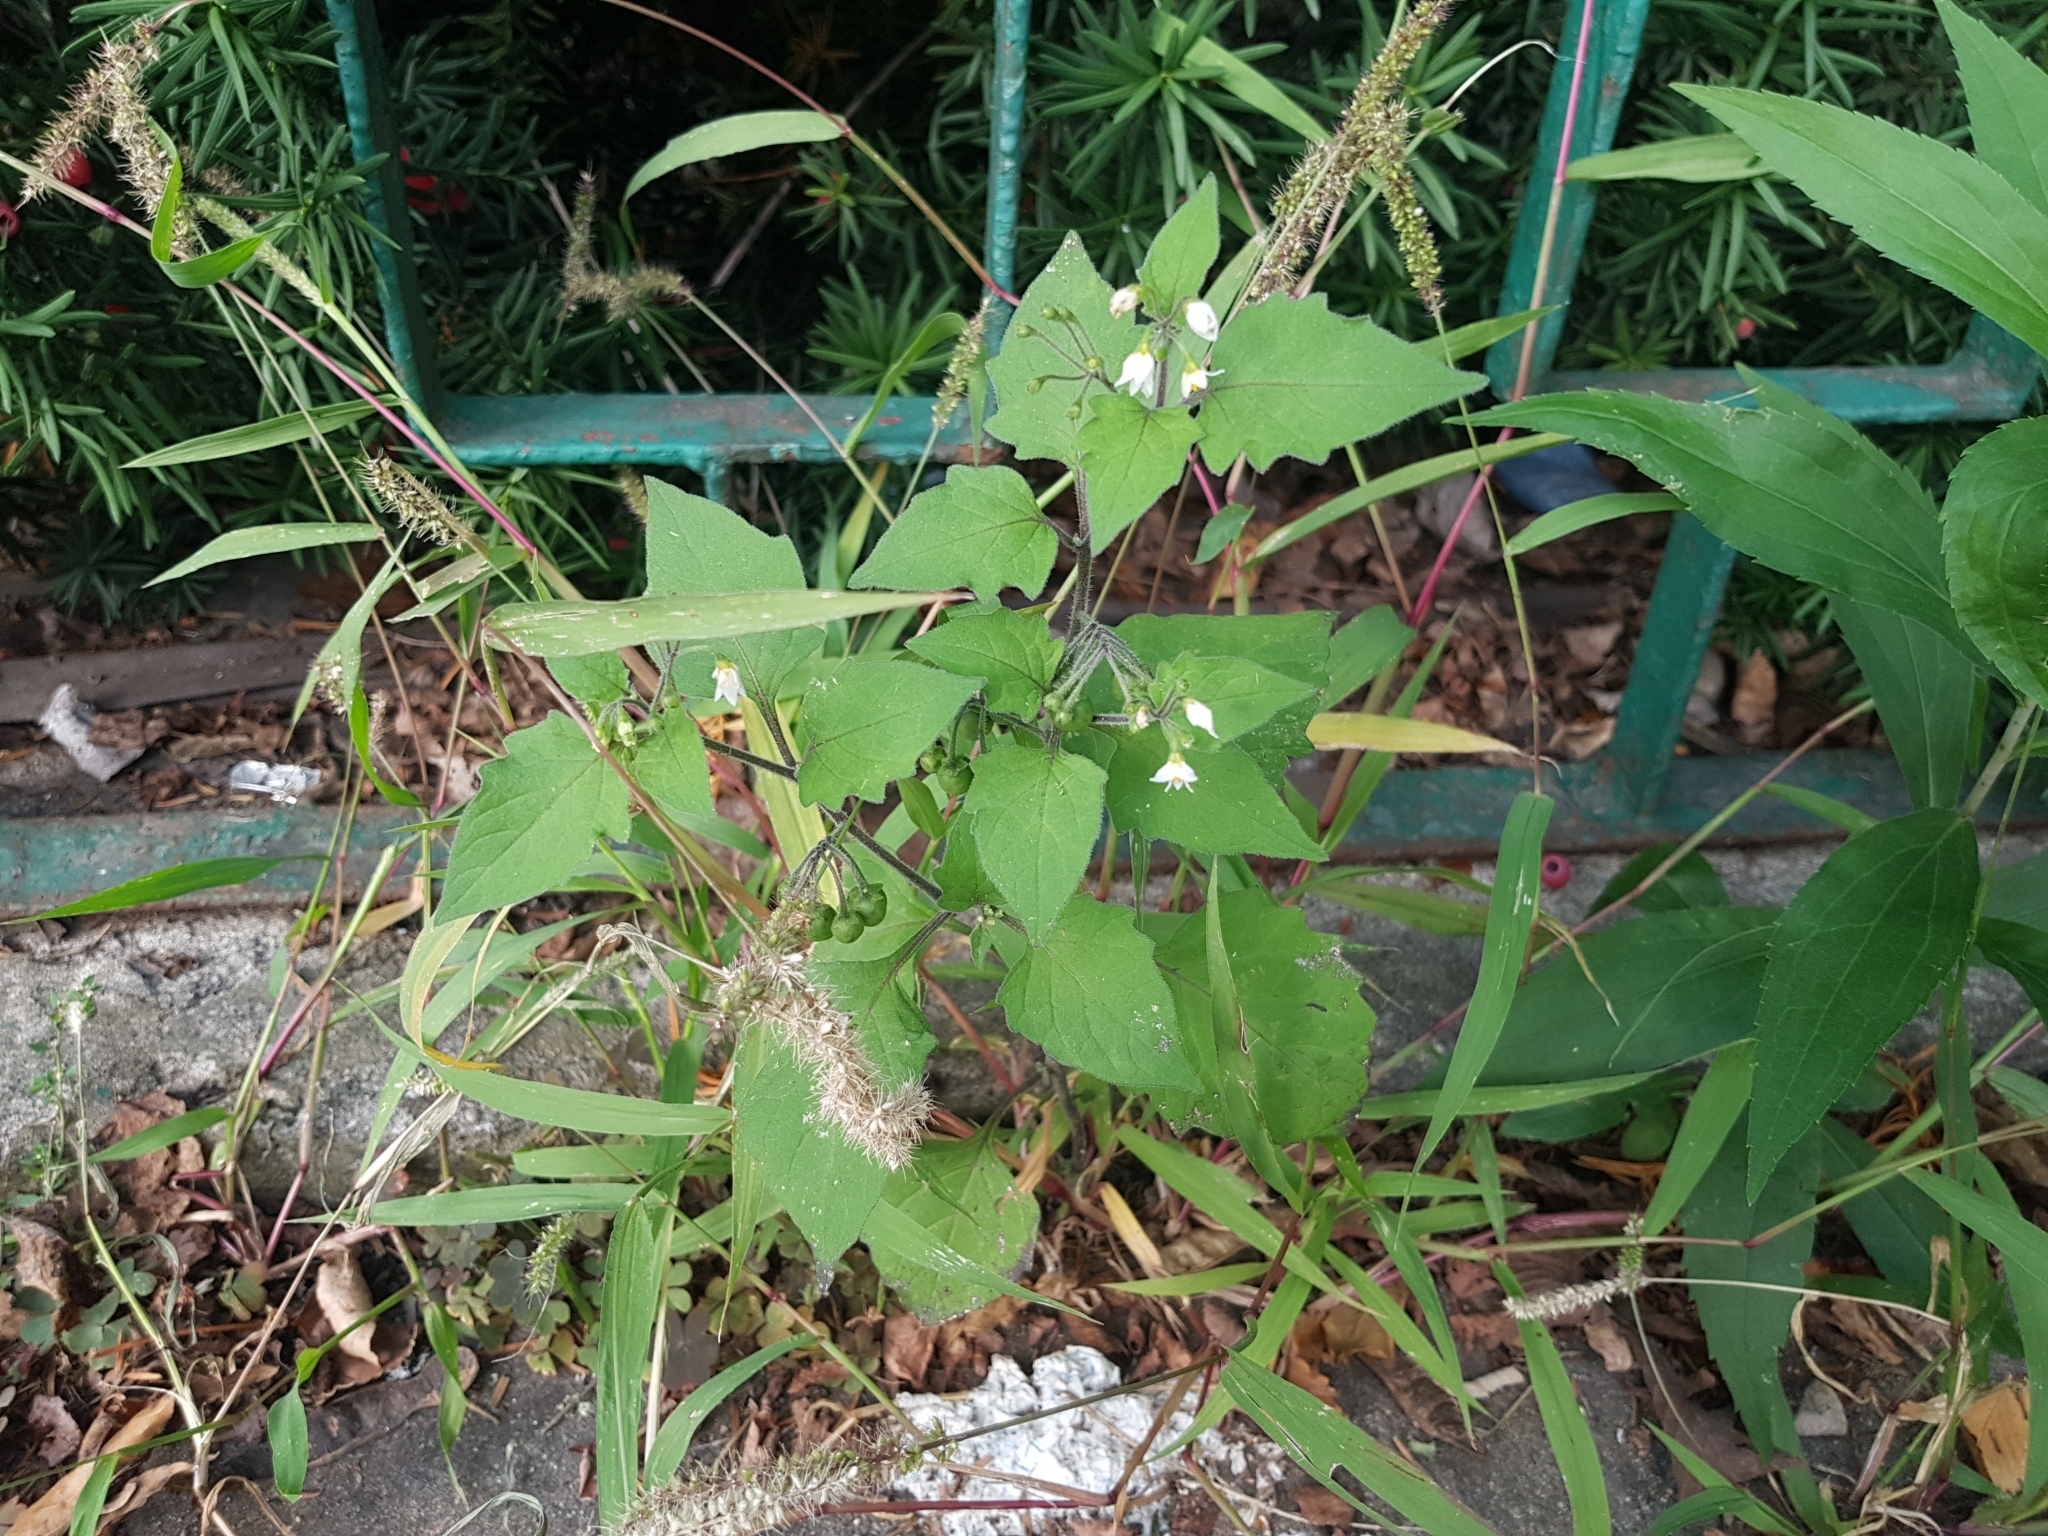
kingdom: Plantae
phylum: Tracheophyta
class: Magnoliopsida
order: Solanales
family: Solanaceae
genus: Solanum
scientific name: Solanum nigrum
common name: Black nightshade
